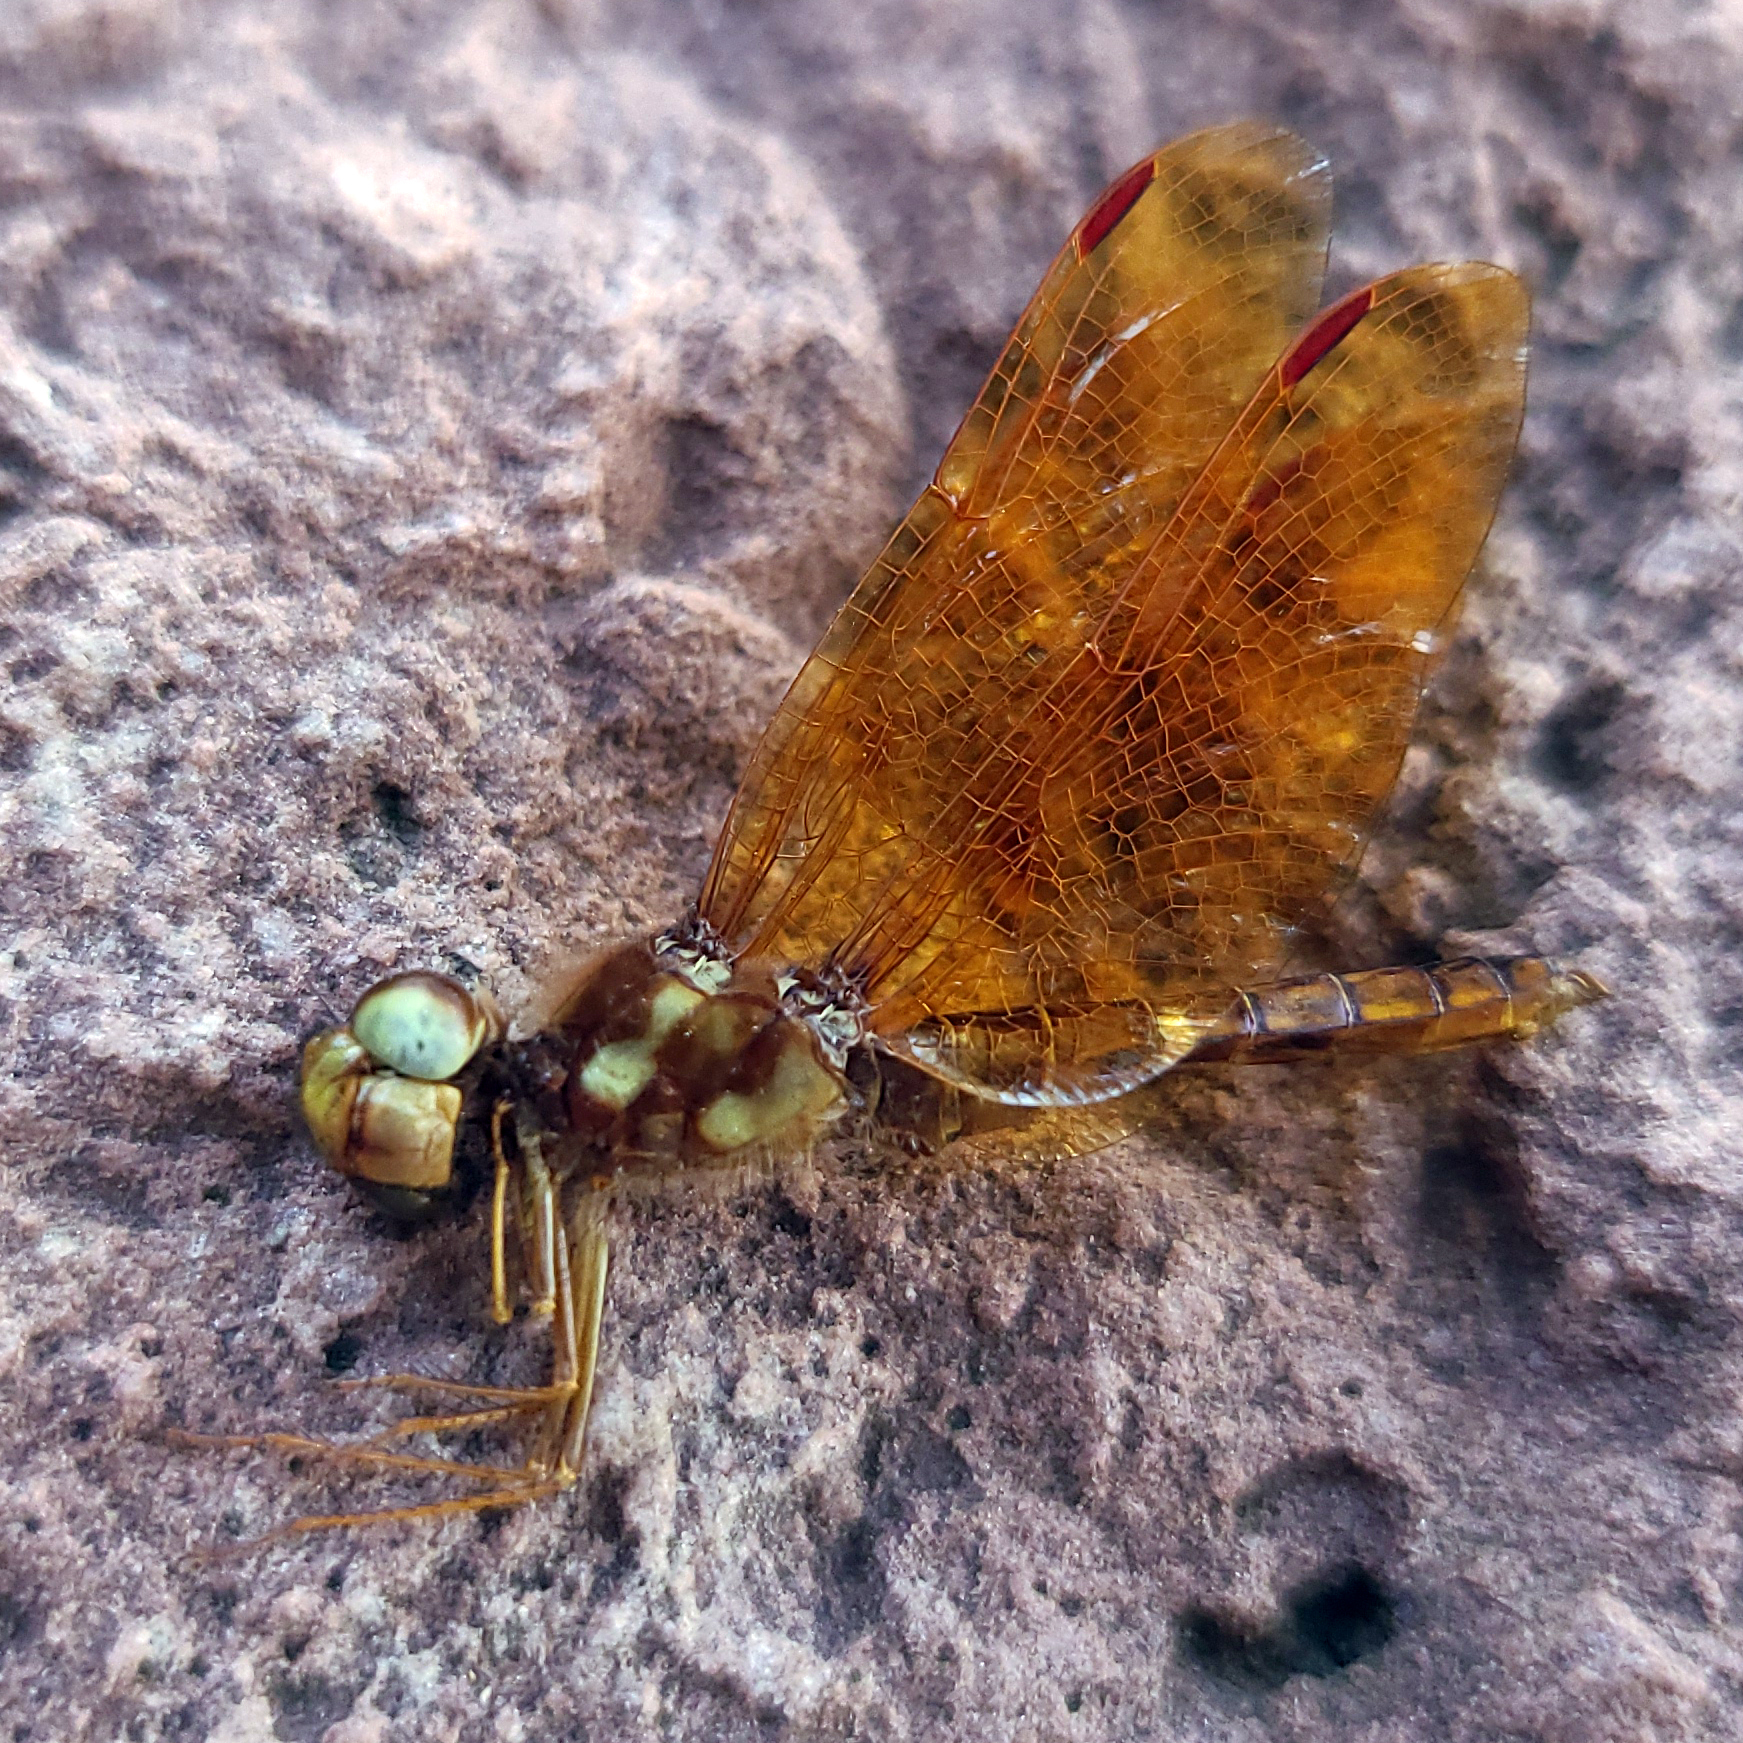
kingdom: Animalia
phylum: Arthropoda
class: Insecta
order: Odonata
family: Libellulidae
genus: Perithemis
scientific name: Perithemis tenera
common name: Eastern amberwing
